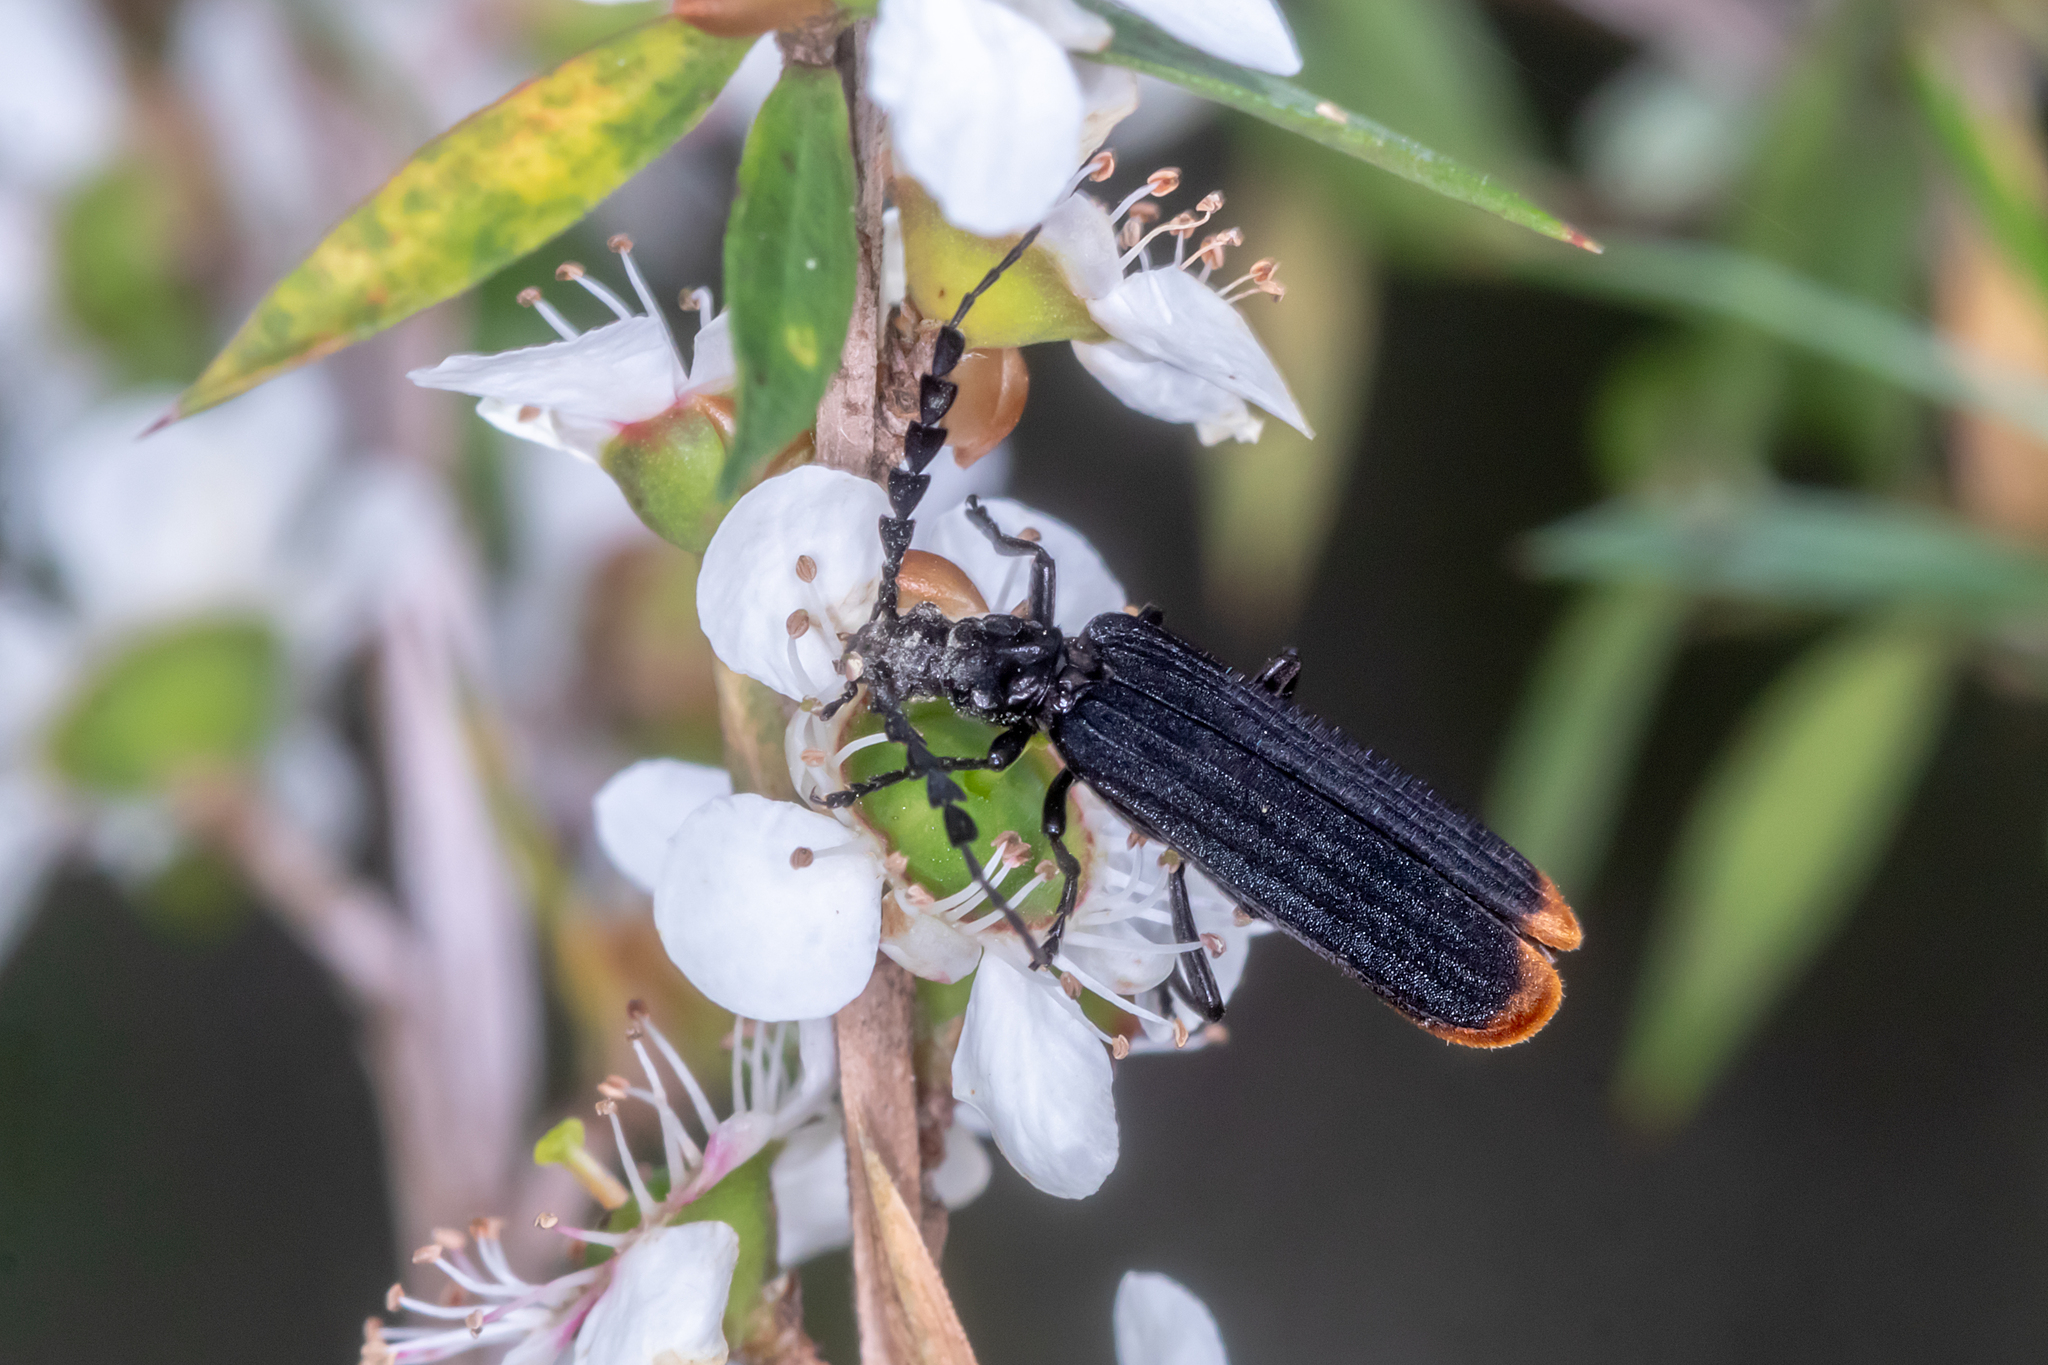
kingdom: Animalia
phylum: Arthropoda
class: Insecta
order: Coleoptera
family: Oedemeridae
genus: Pseudolycus
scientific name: Pseudolycus
